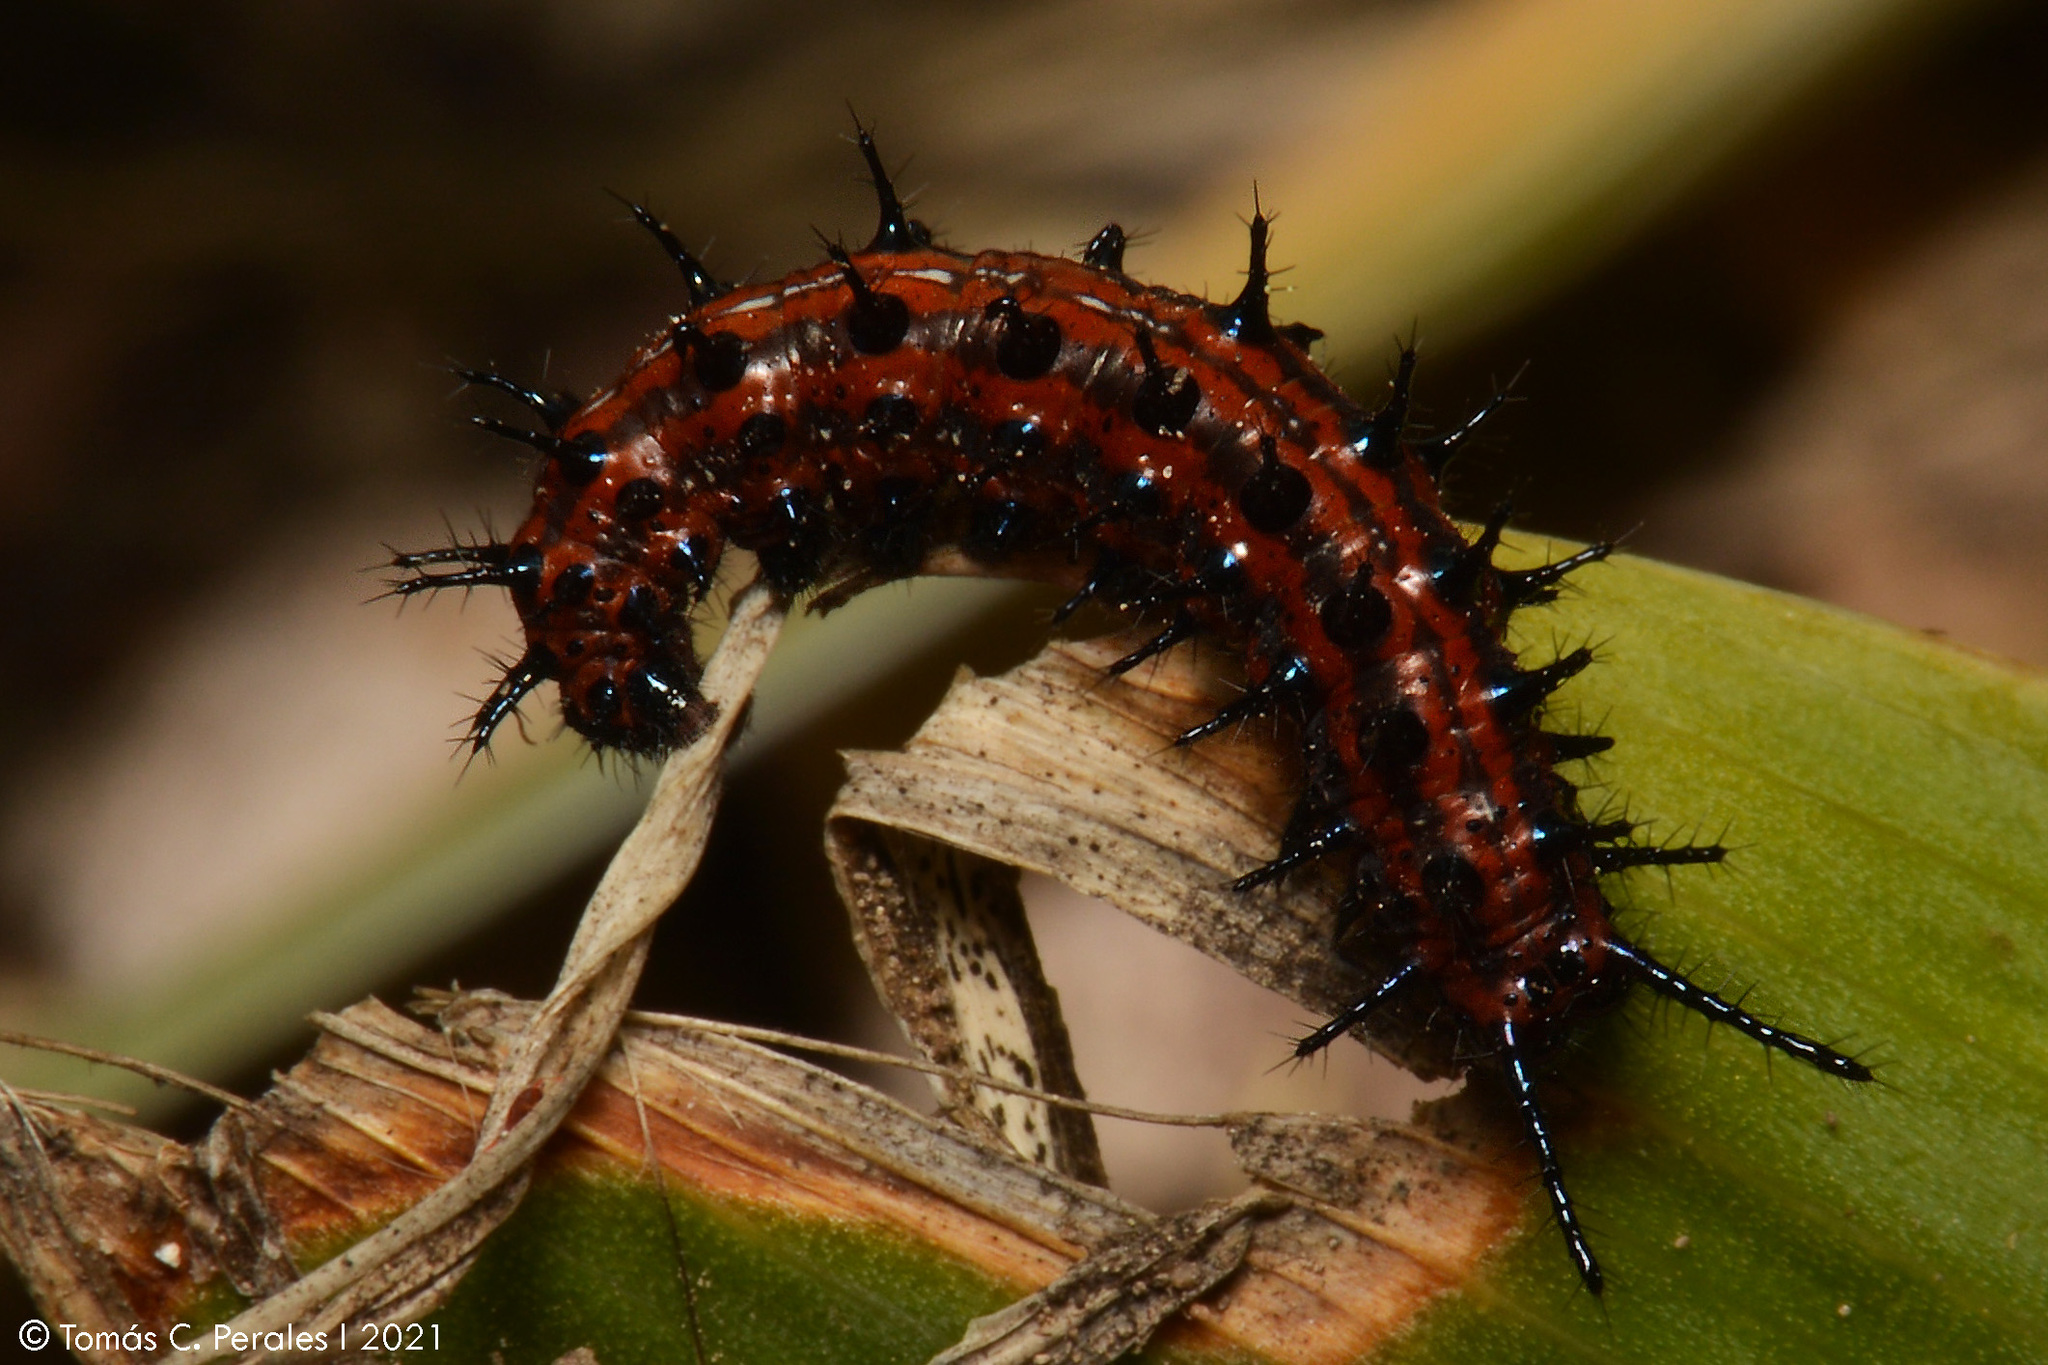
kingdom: Animalia
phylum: Arthropoda
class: Insecta
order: Lepidoptera
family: Nymphalidae
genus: Euptoieta
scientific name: Euptoieta hortensia
